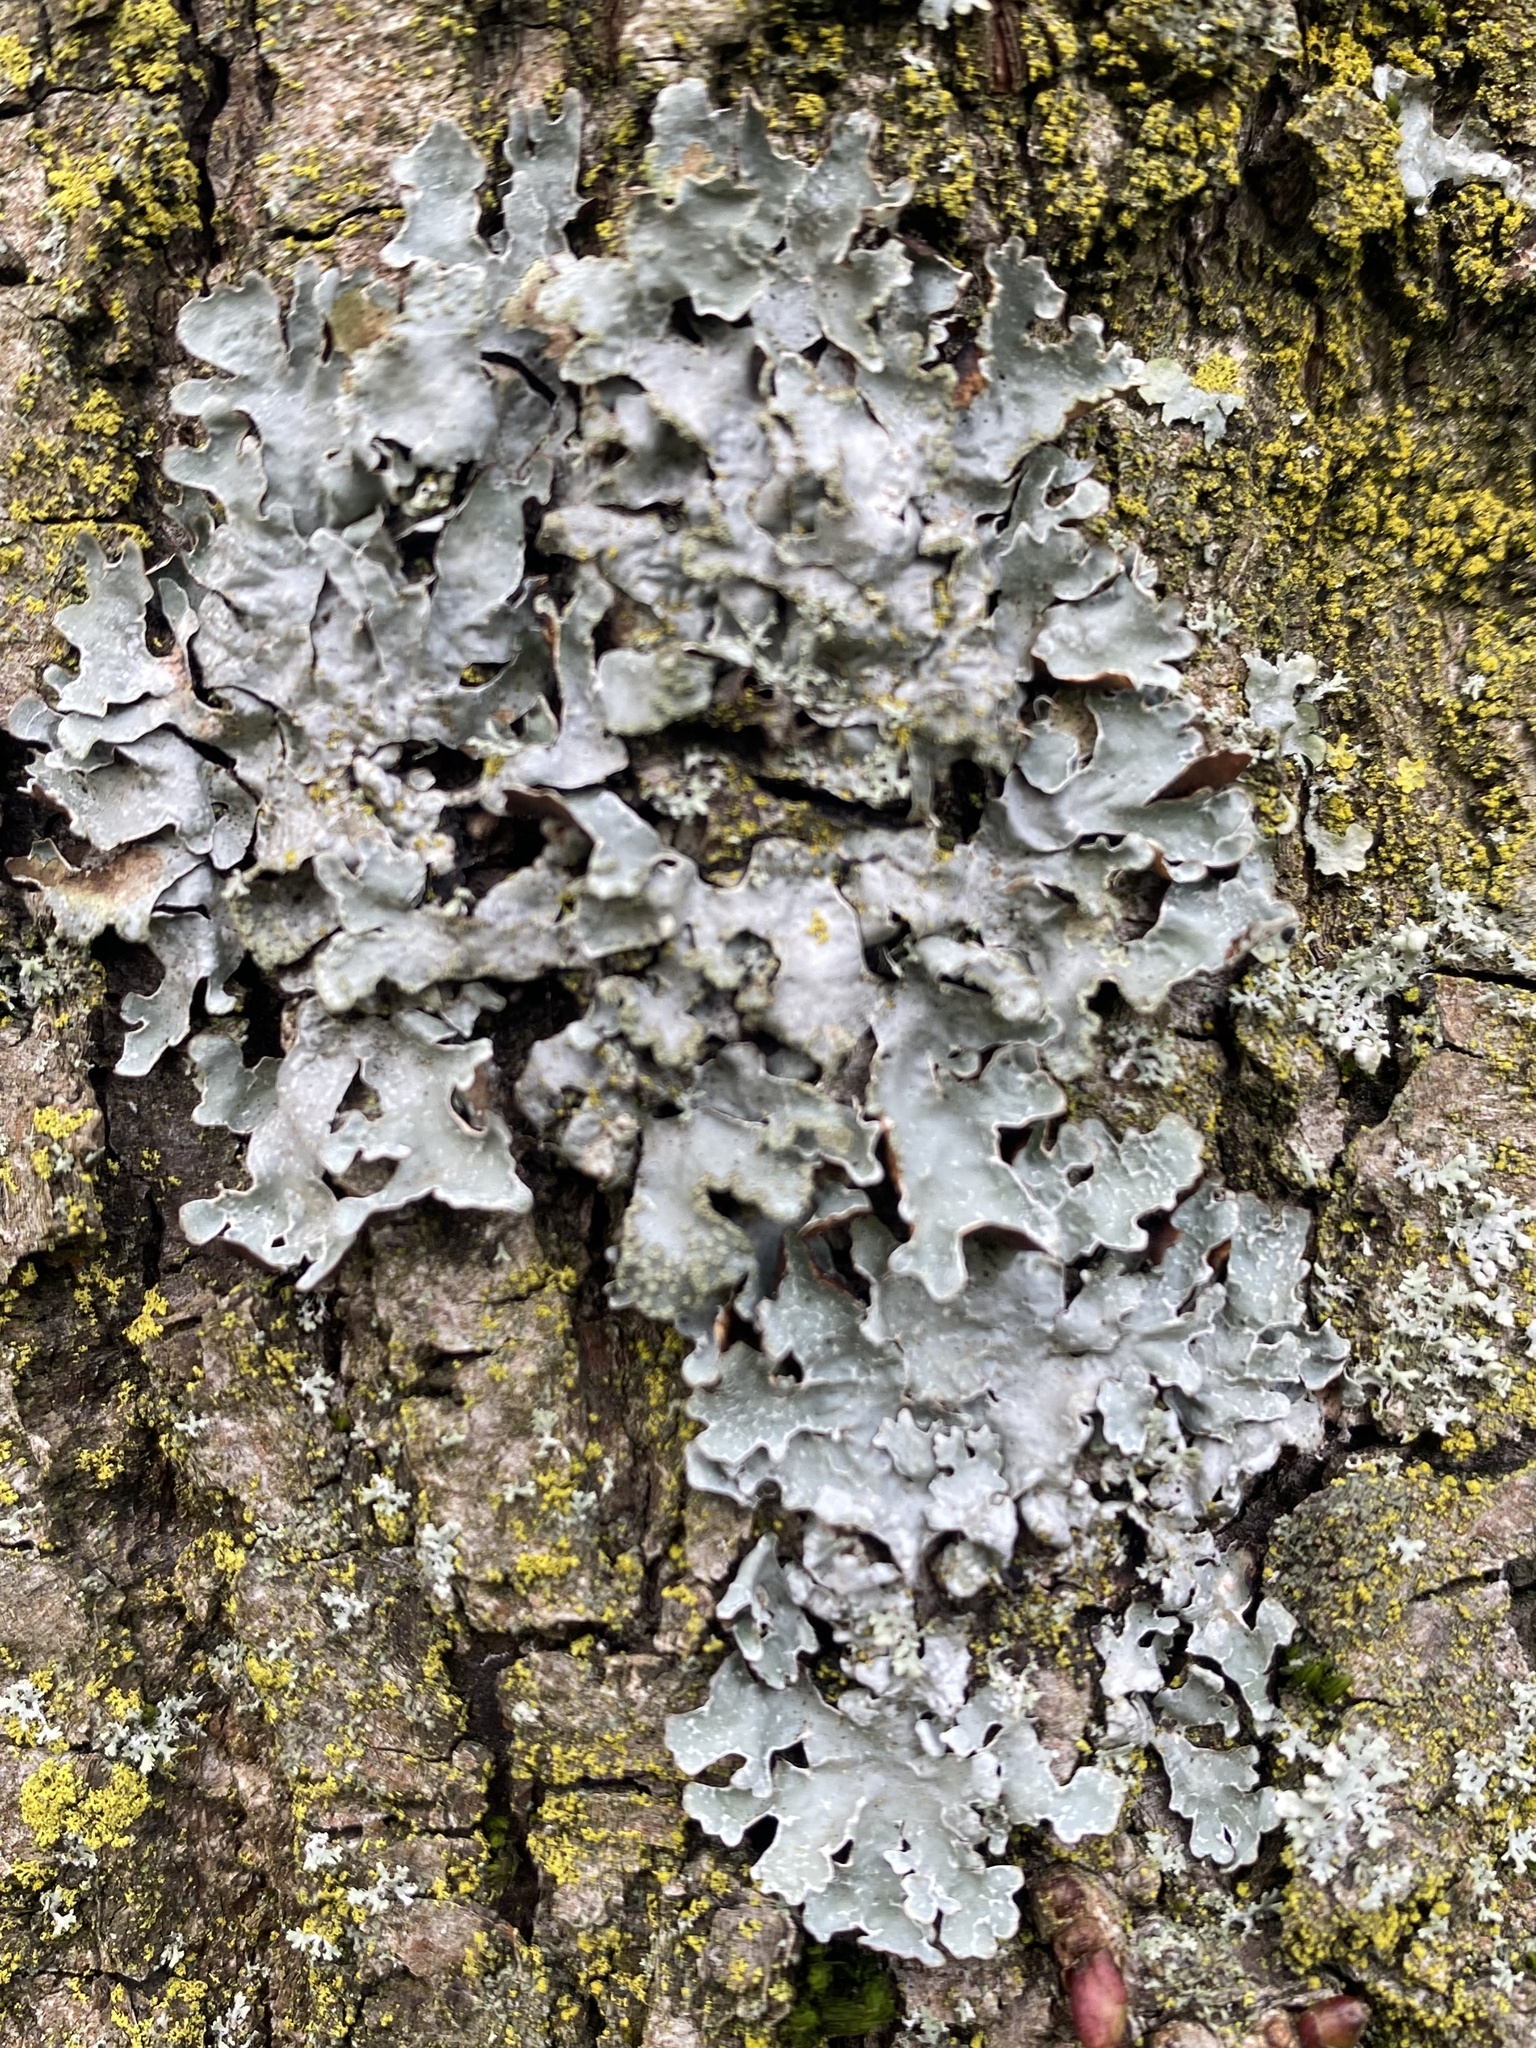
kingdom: Fungi
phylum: Ascomycota
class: Lecanoromycetes
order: Lecanorales
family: Parmeliaceae
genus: Parmelia
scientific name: Parmelia sulcata
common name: Netted shield lichen
